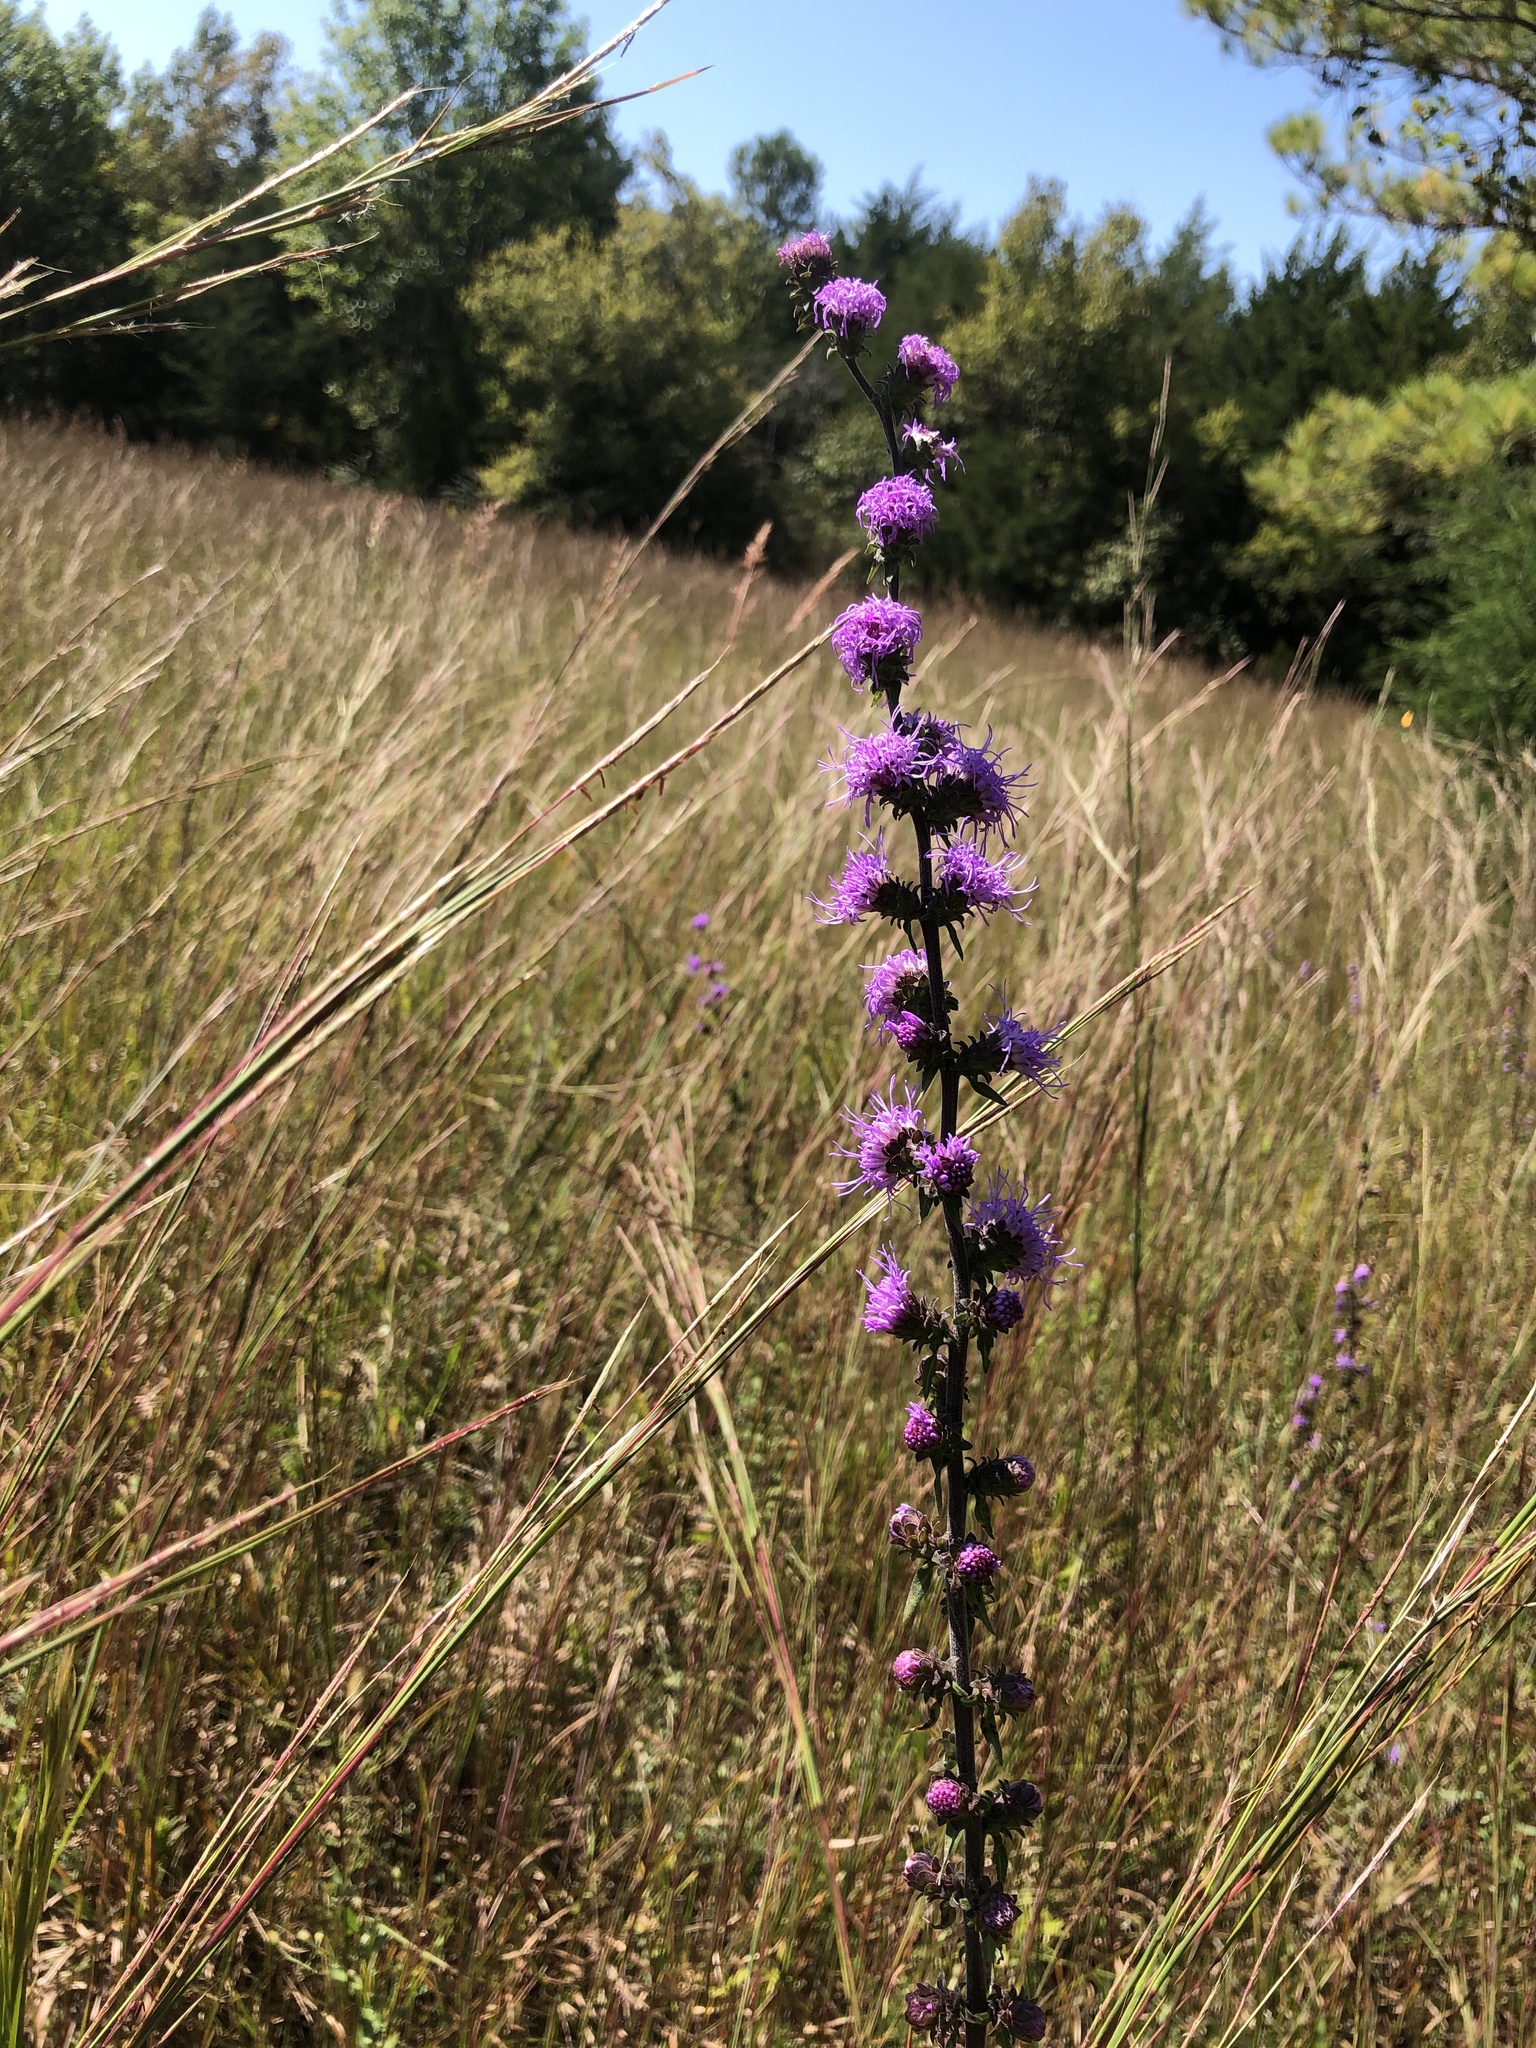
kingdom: Plantae
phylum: Tracheophyta
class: Magnoliopsida
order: Asterales
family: Asteraceae
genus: Liatris
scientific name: Liatris squarrulosa
